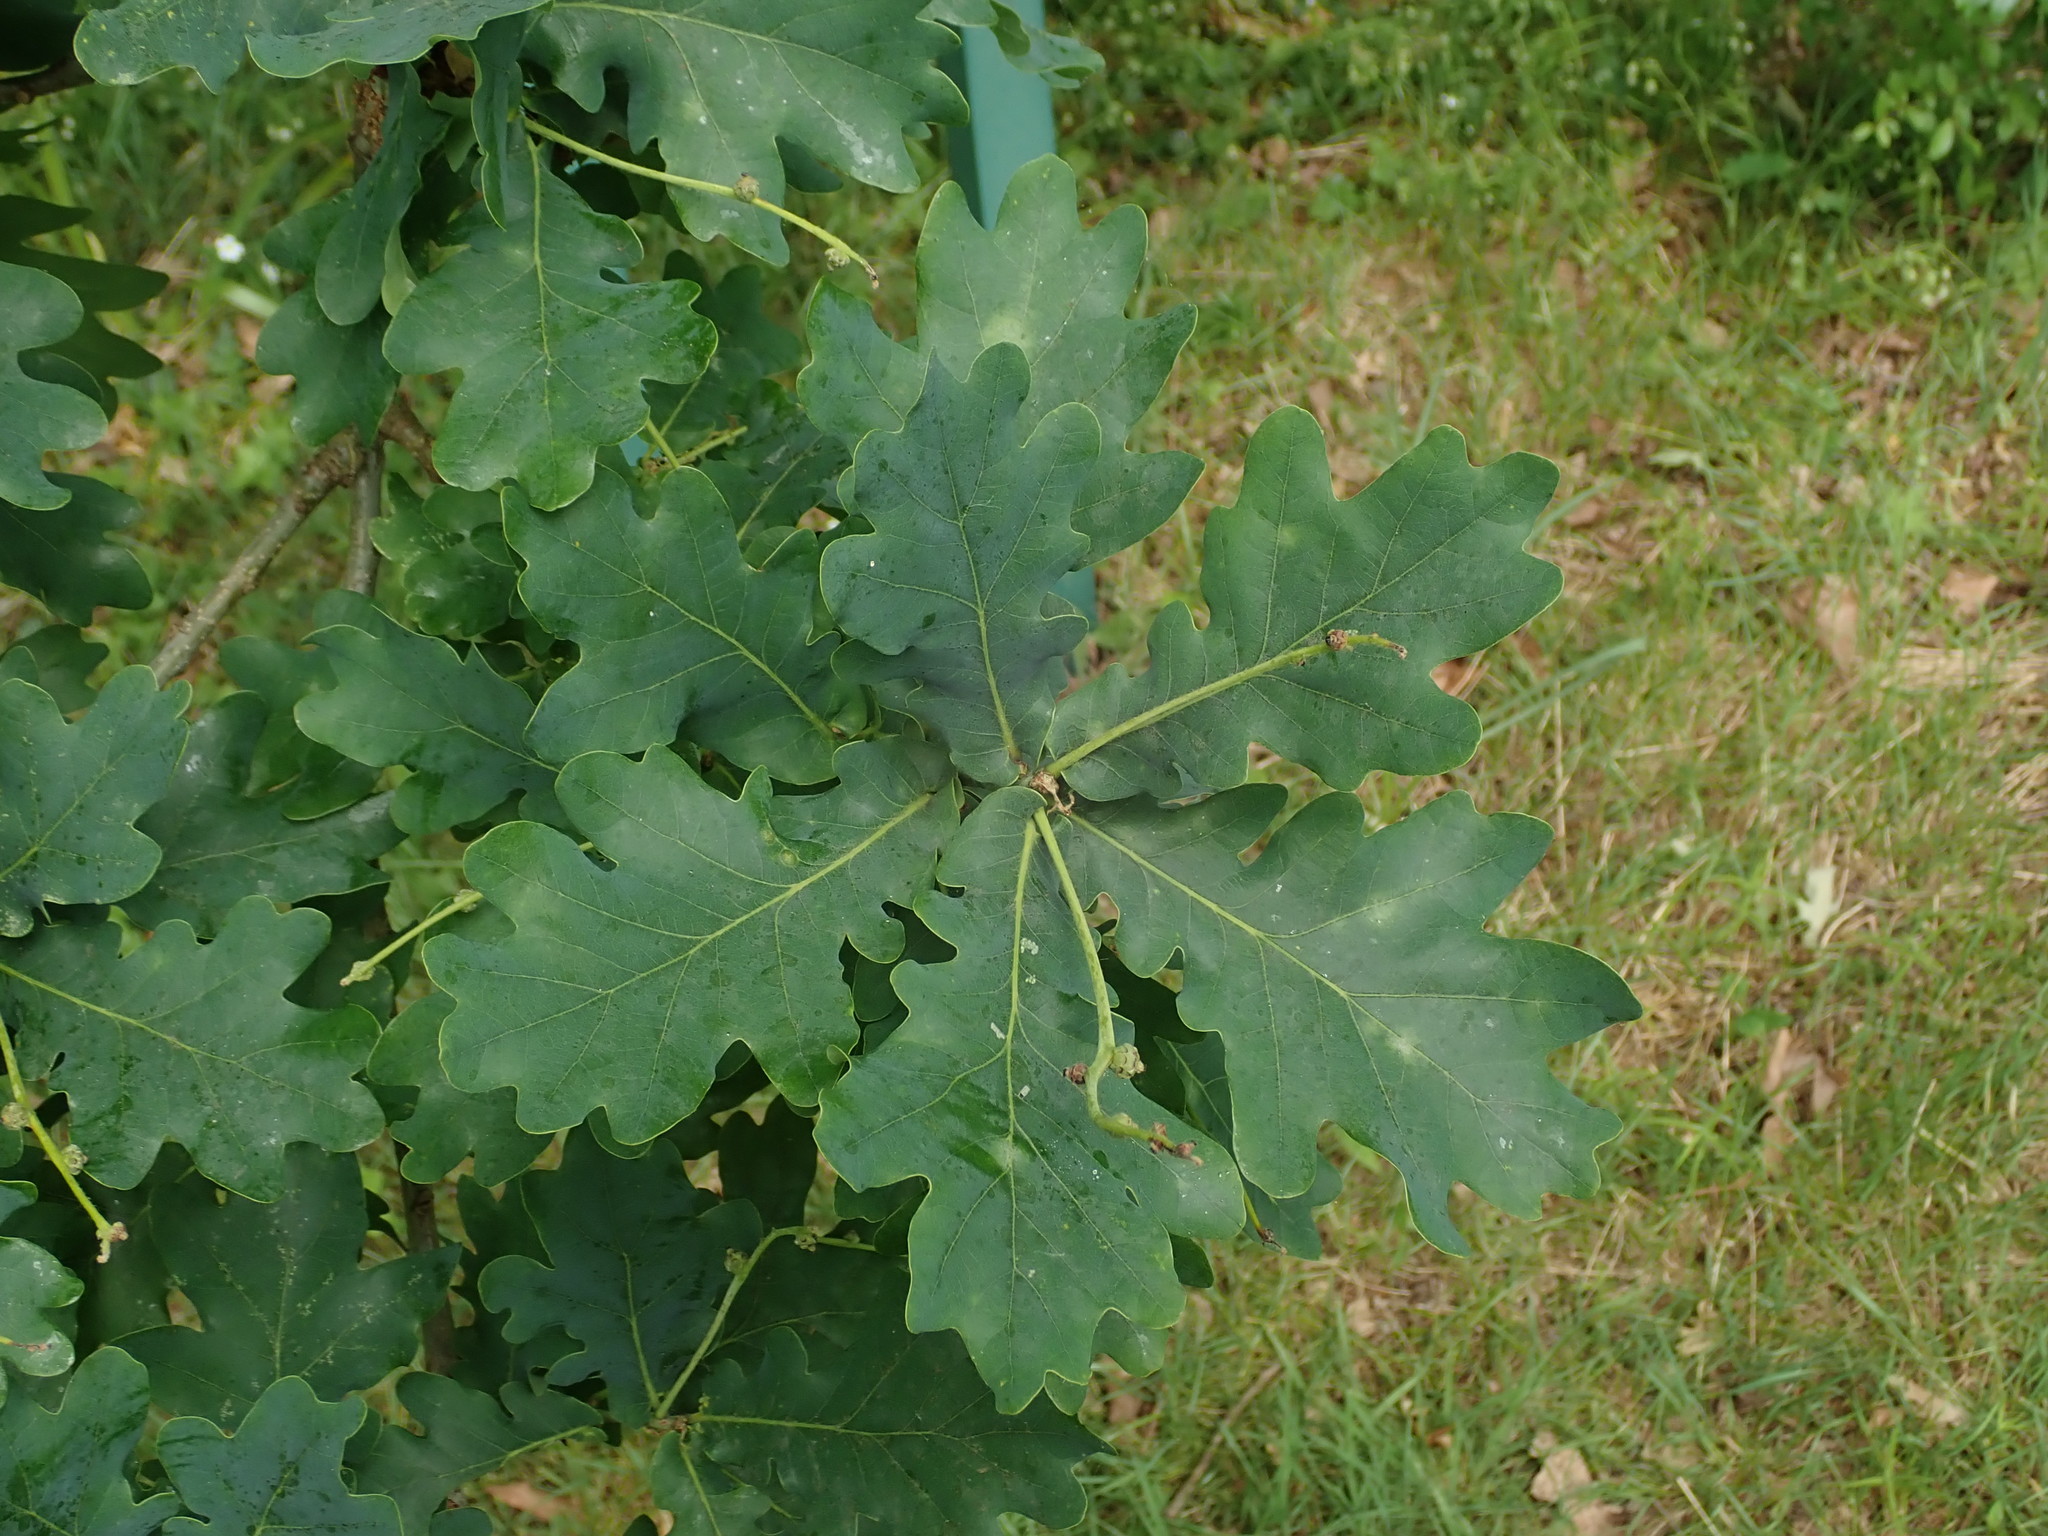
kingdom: Plantae
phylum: Tracheophyta
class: Magnoliopsida
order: Fagales
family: Fagaceae
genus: Quercus
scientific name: Quercus robur
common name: Pedunculate oak
